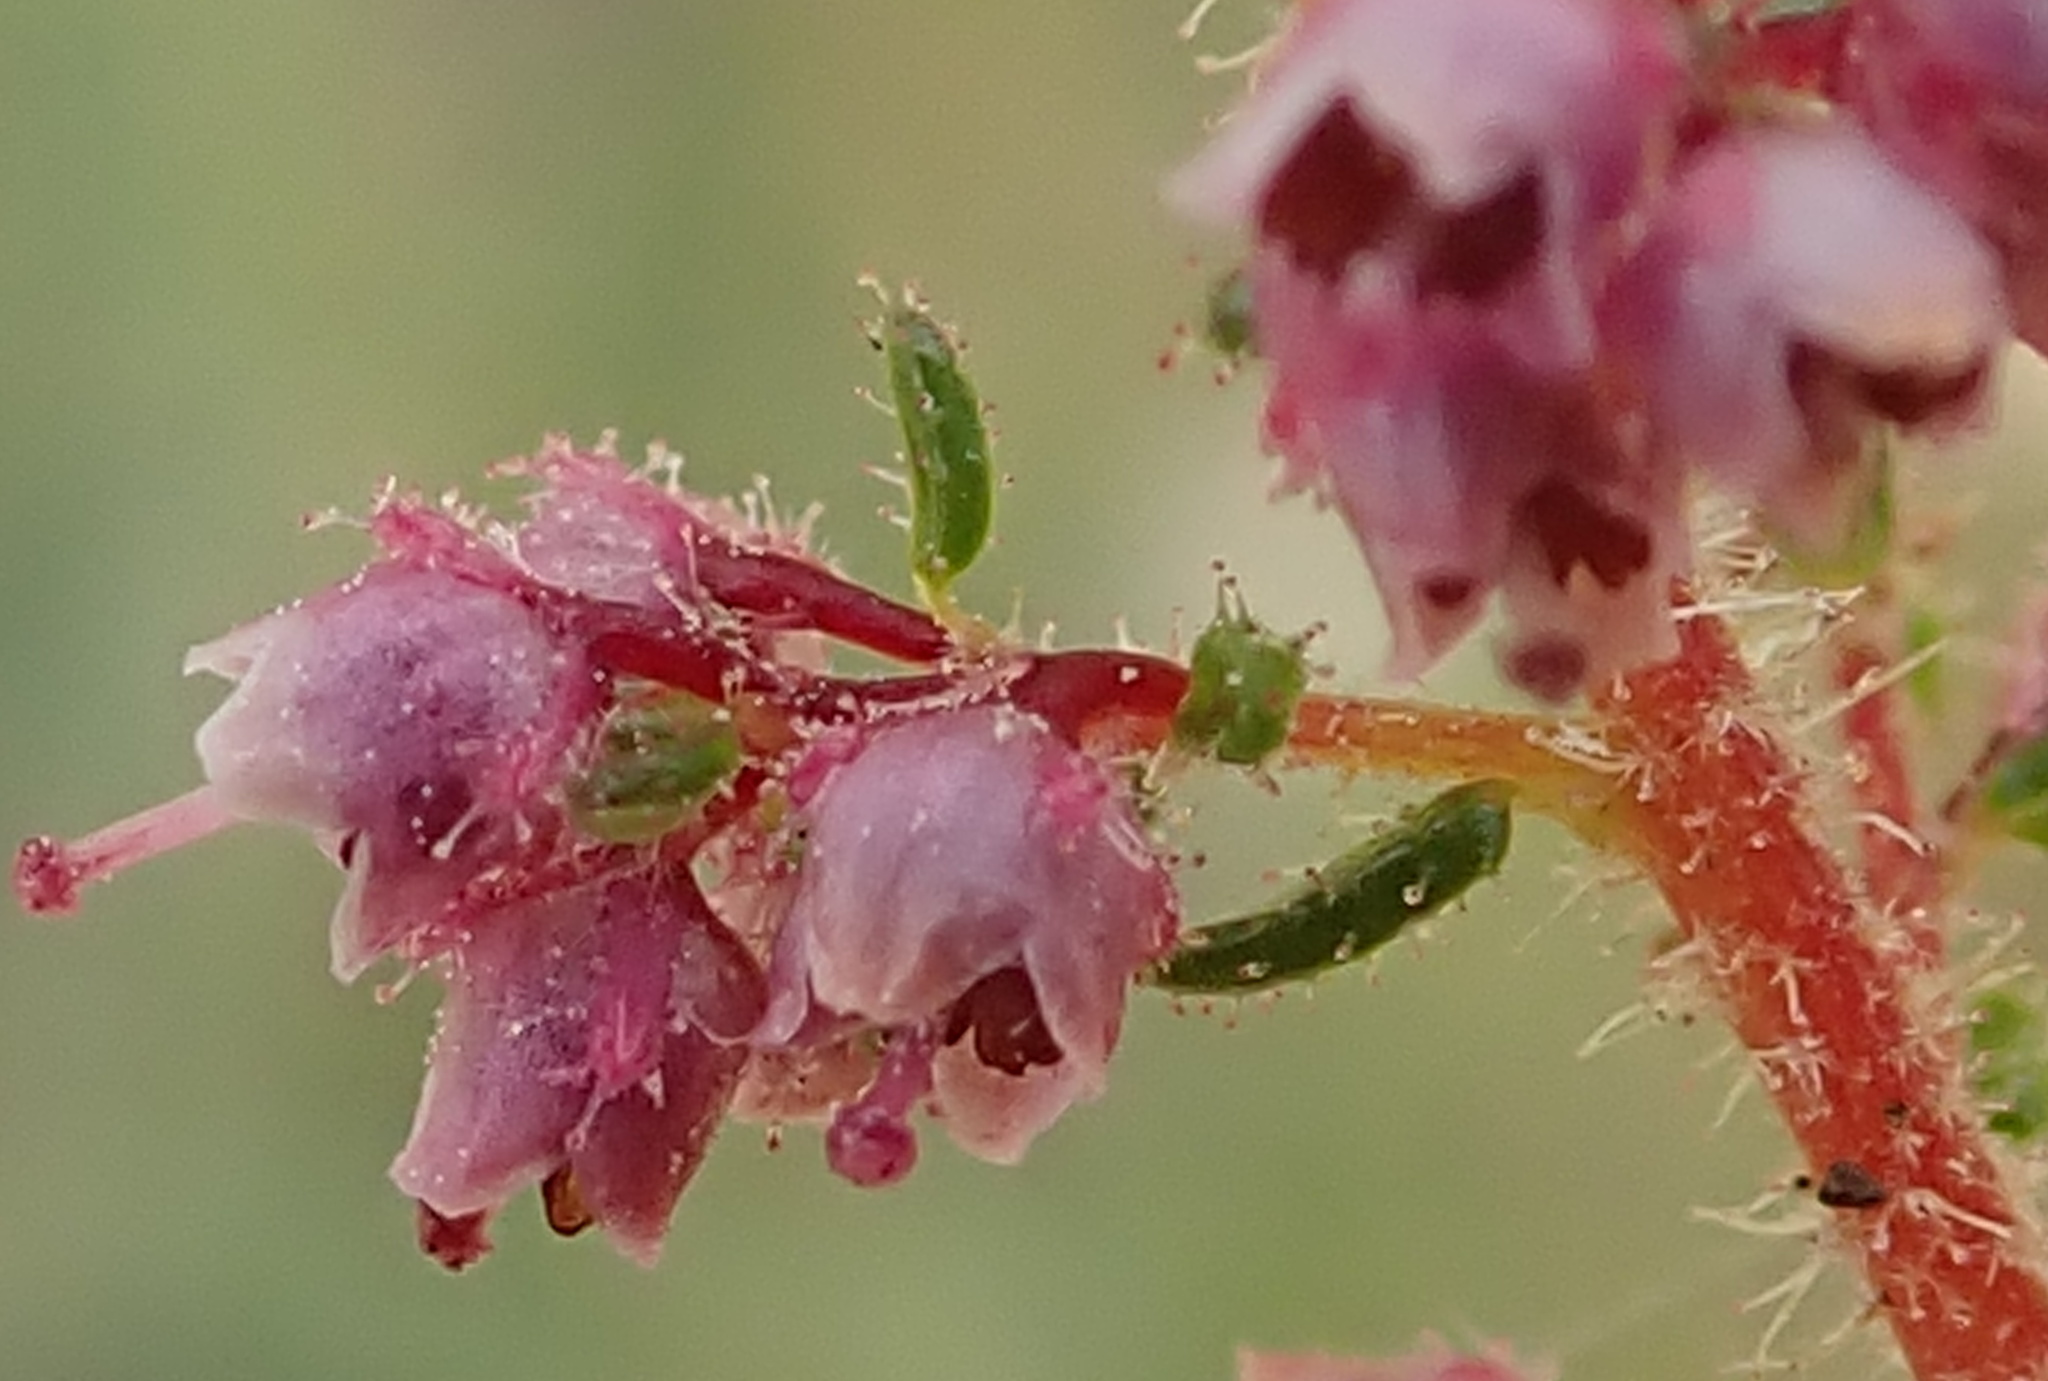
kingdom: Plantae
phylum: Tracheophyta
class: Magnoliopsida
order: Ericales
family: Ericaceae
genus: Erica
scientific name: Erica aestiva
